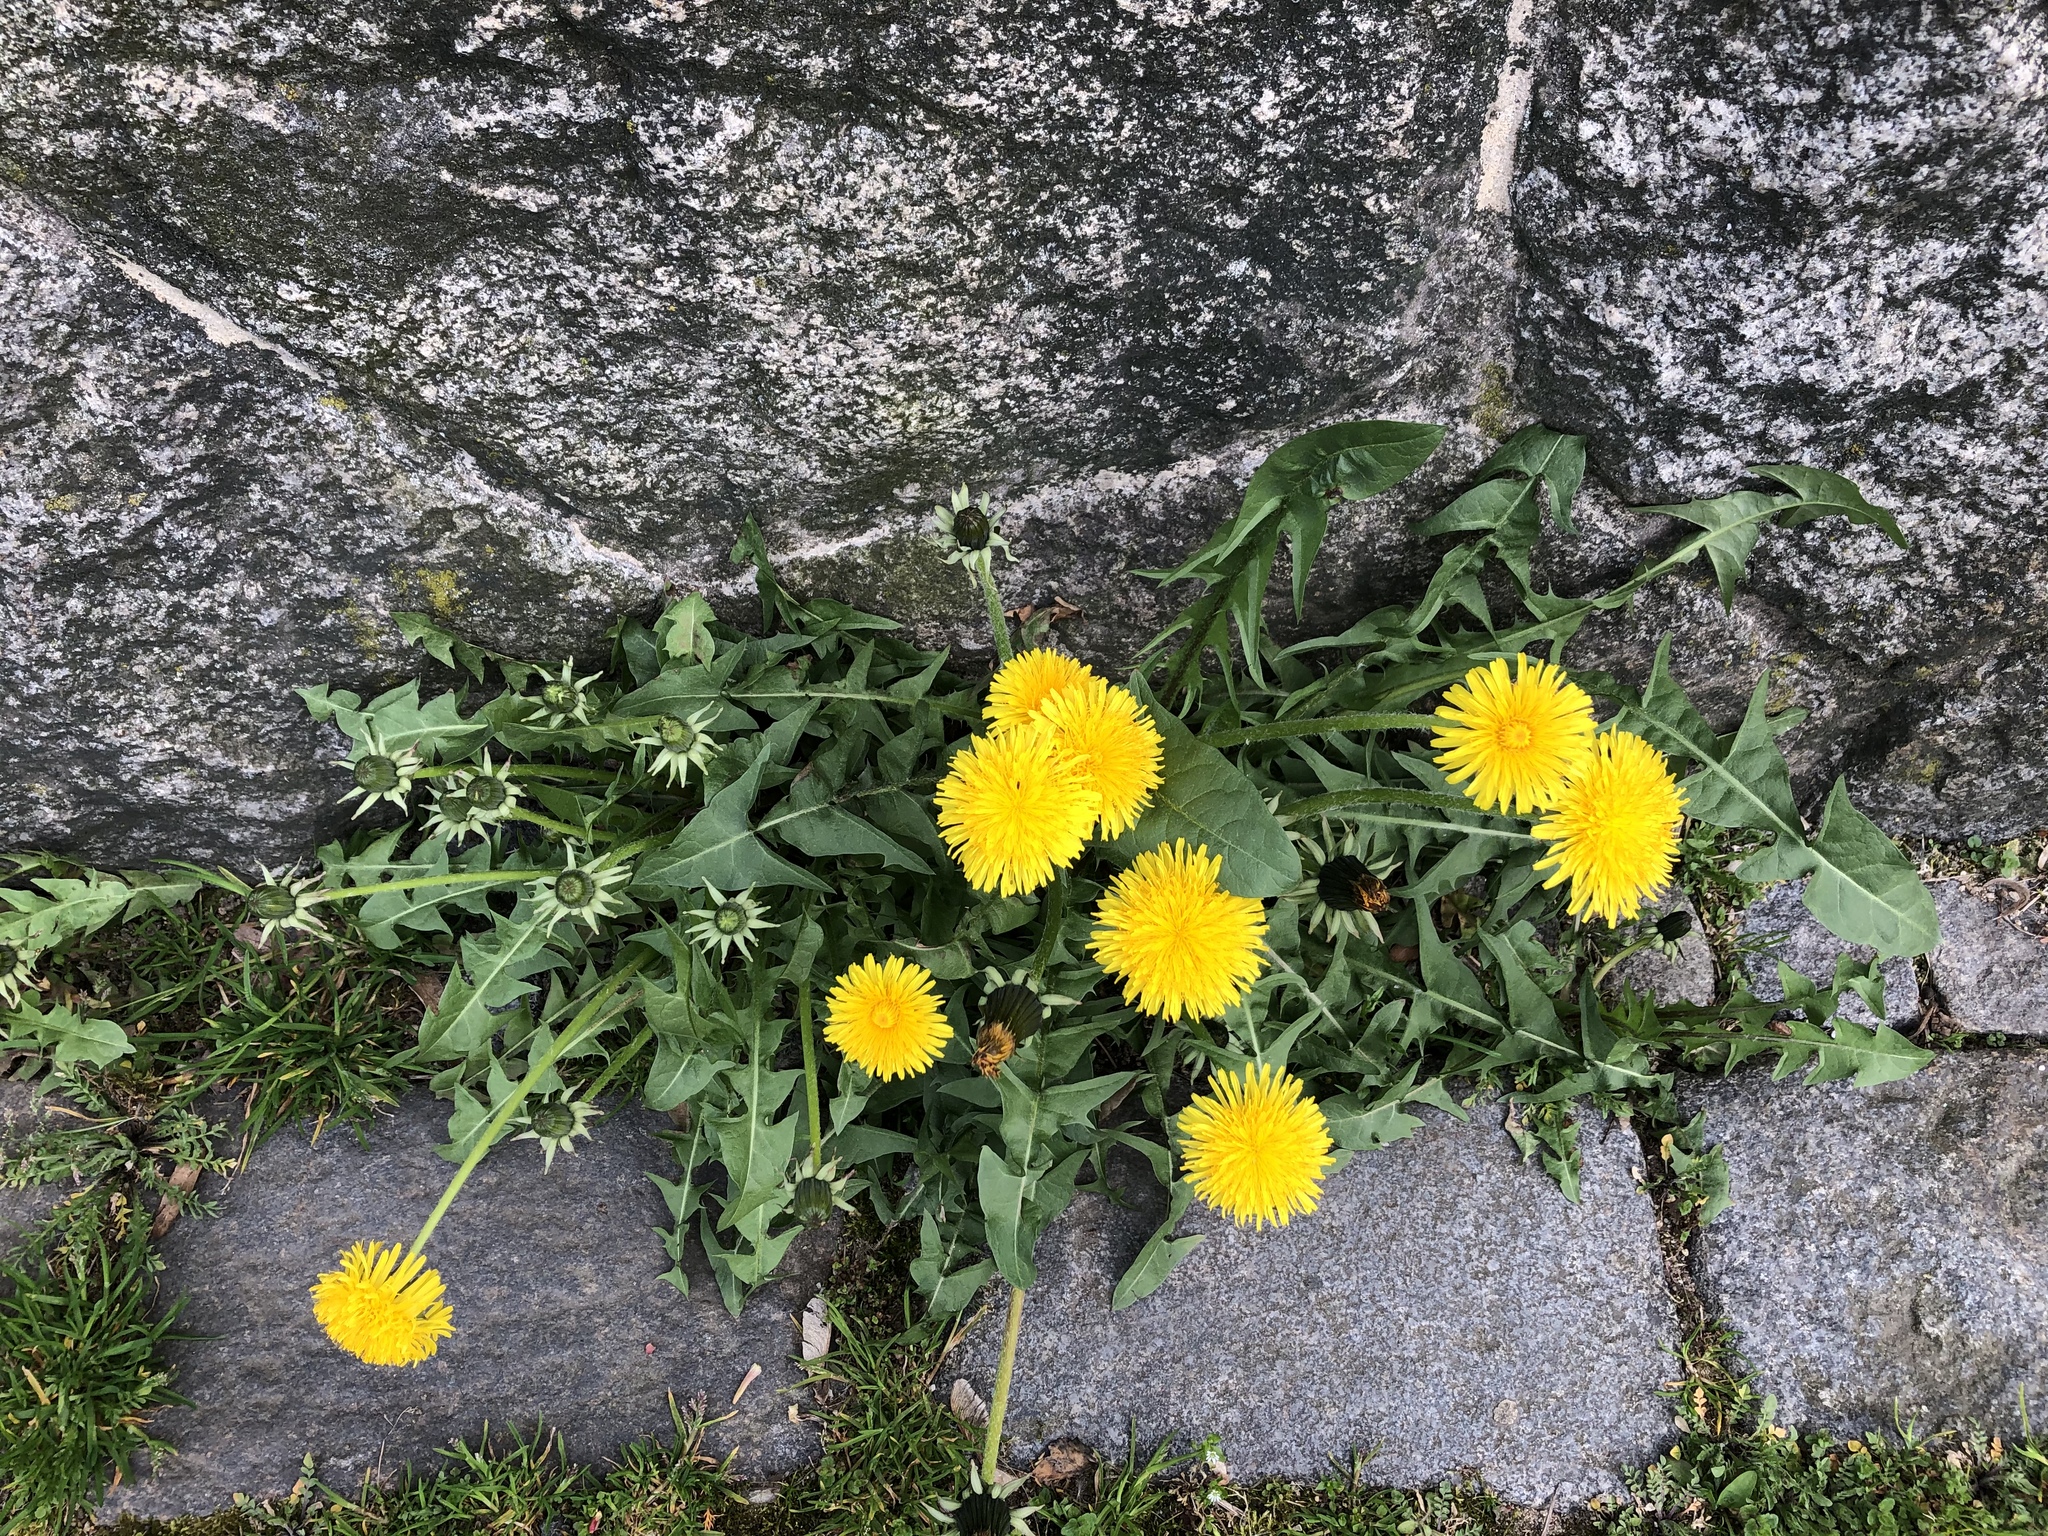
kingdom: Plantae
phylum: Tracheophyta
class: Magnoliopsida
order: Asterales
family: Asteraceae
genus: Taraxacum
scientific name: Taraxacum officinale
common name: Common dandelion
